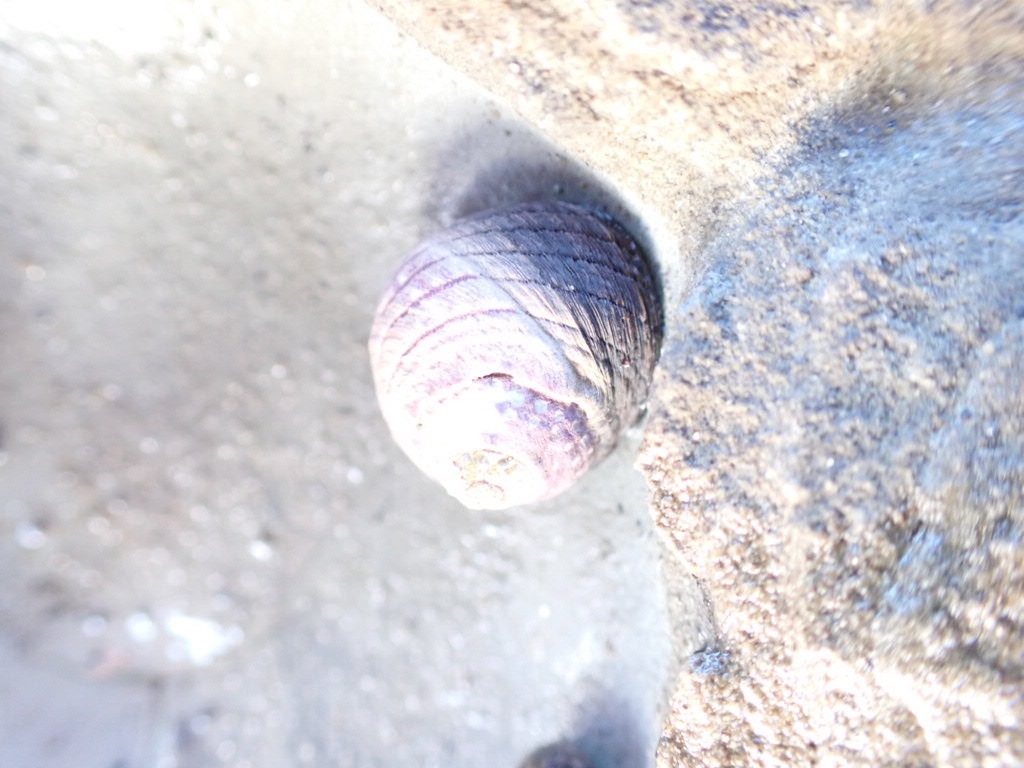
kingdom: Animalia
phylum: Mollusca
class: Gastropoda
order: Trochida
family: Trochidae
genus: Diloma
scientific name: Diloma aethiops
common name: Scorched monodont
